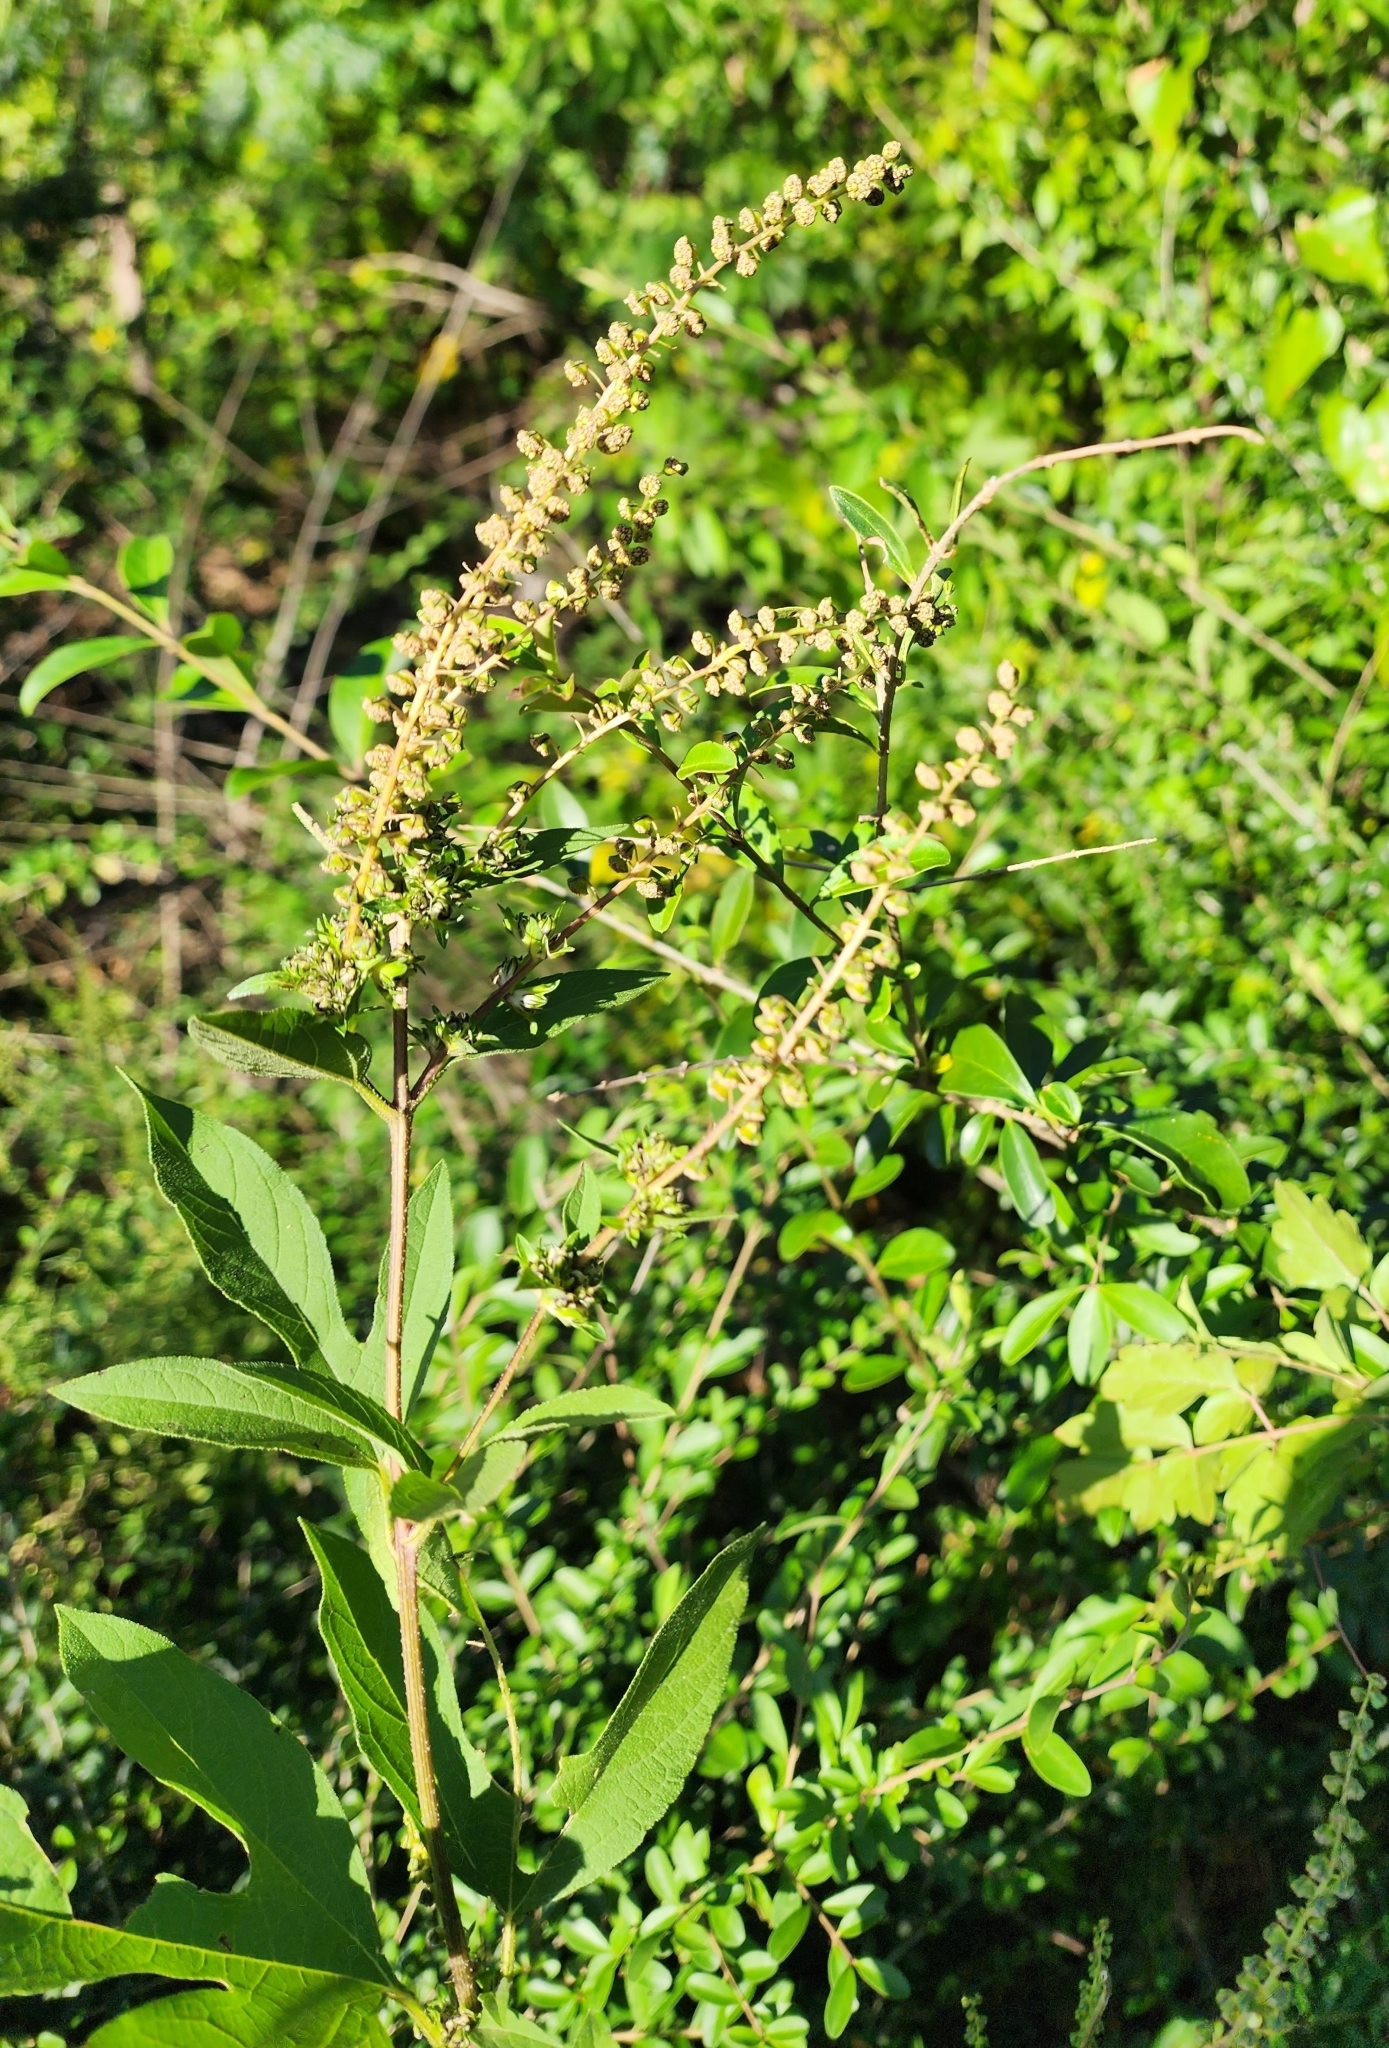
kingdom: Plantae
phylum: Tracheophyta
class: Magnoliopsida
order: Asterales
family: Asteraceae
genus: Ambrosia
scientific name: Ambrosia trifida
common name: Giant ragweed
